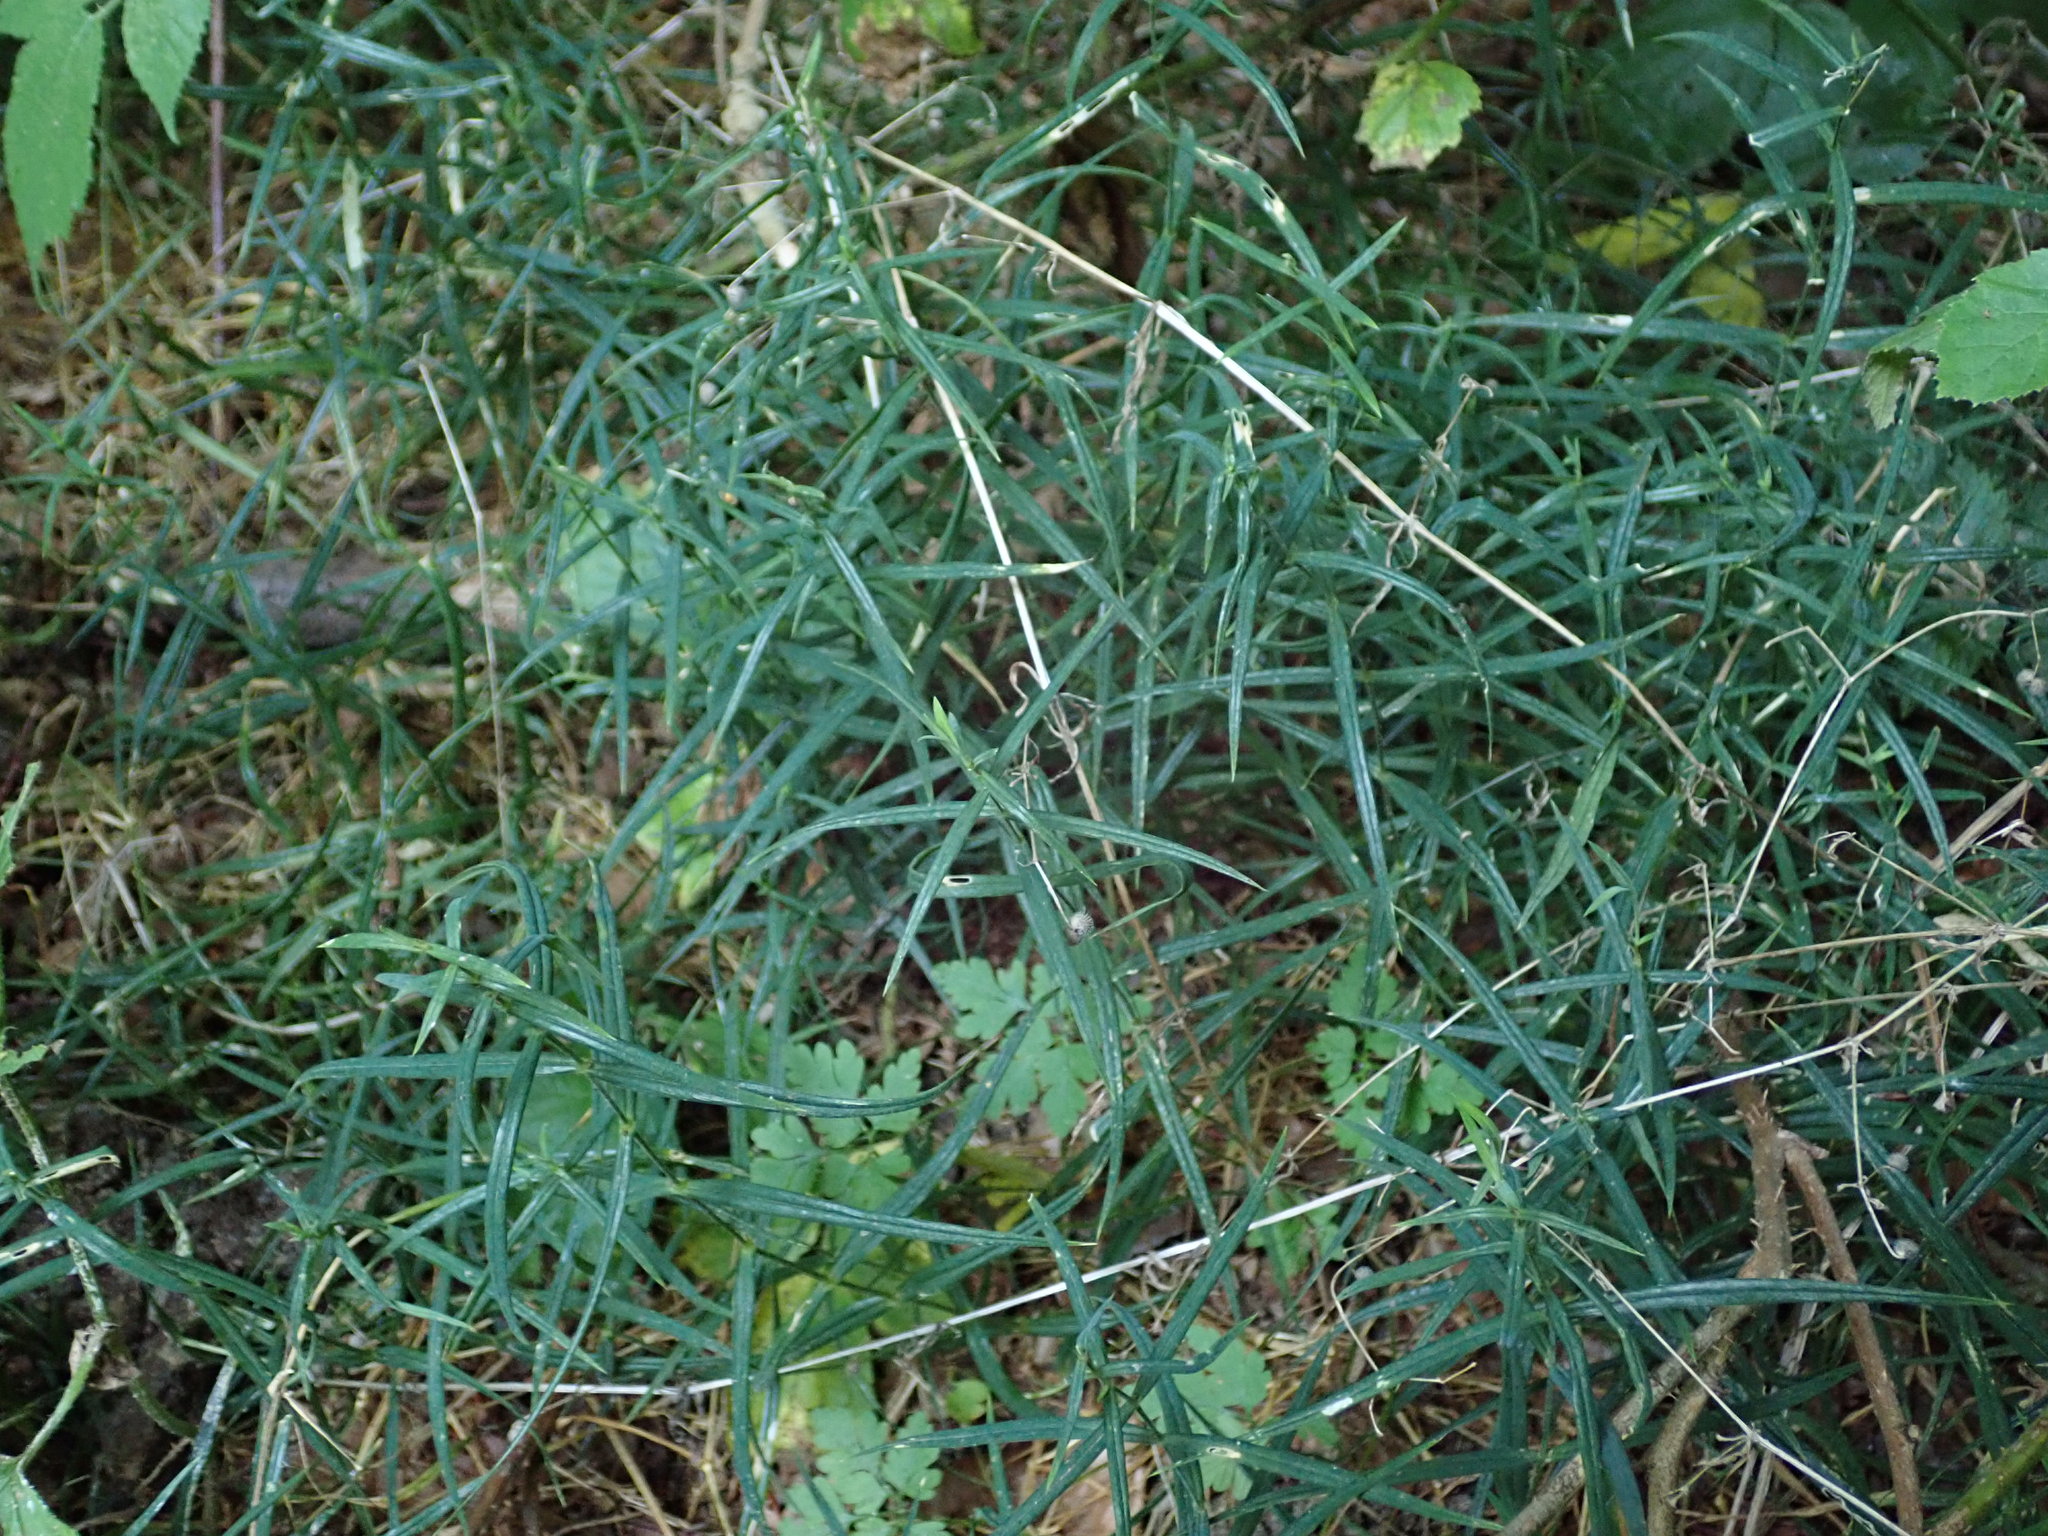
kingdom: Plantae
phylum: Tracheophyta
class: Magnoliopsida
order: Caryophyllales
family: Caryophyllaceae
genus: Rabelera
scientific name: Rabelera holostea
